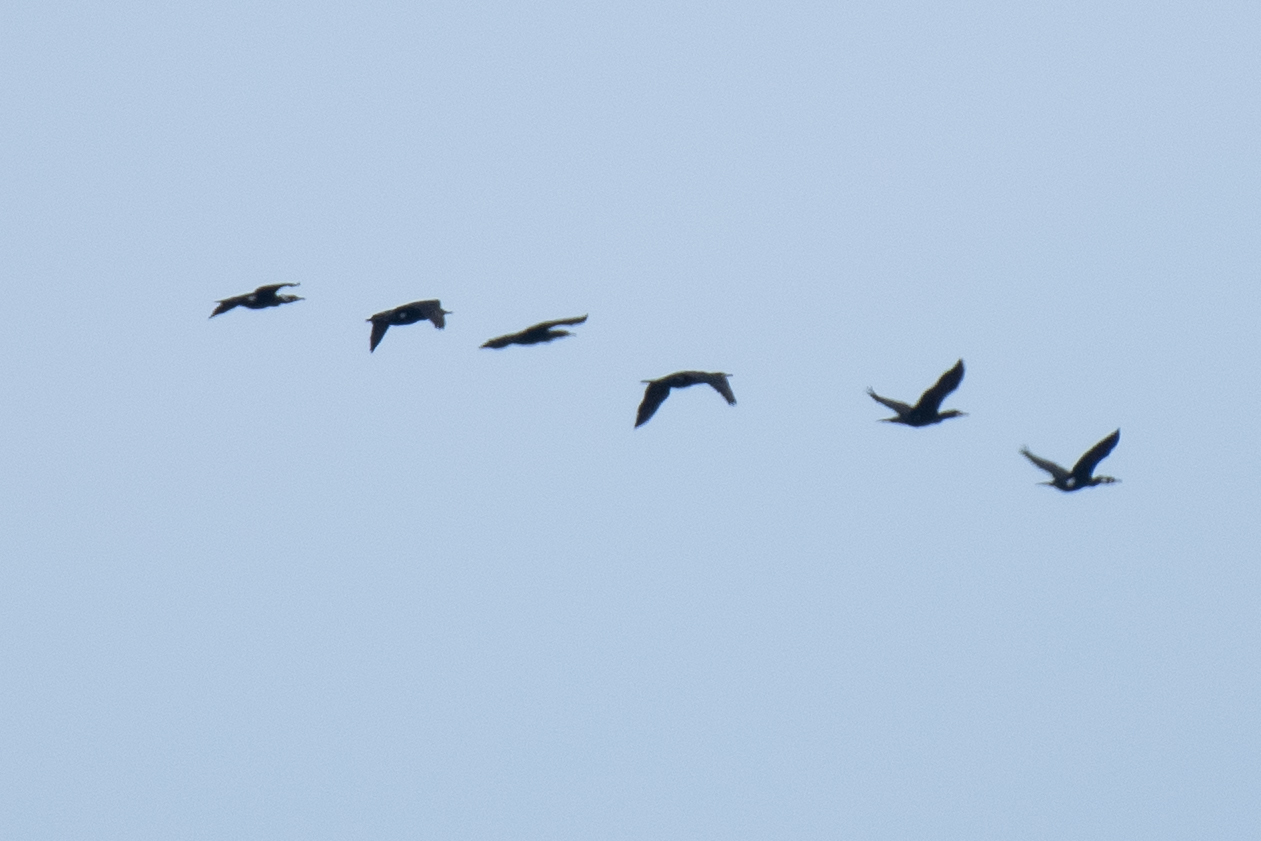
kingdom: Animalia
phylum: Chordata
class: Aves
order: Suliformes
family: Phalacrocoracidae
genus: Phalacrocorax
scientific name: Phalacrocorax carbo
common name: Great cormorant
